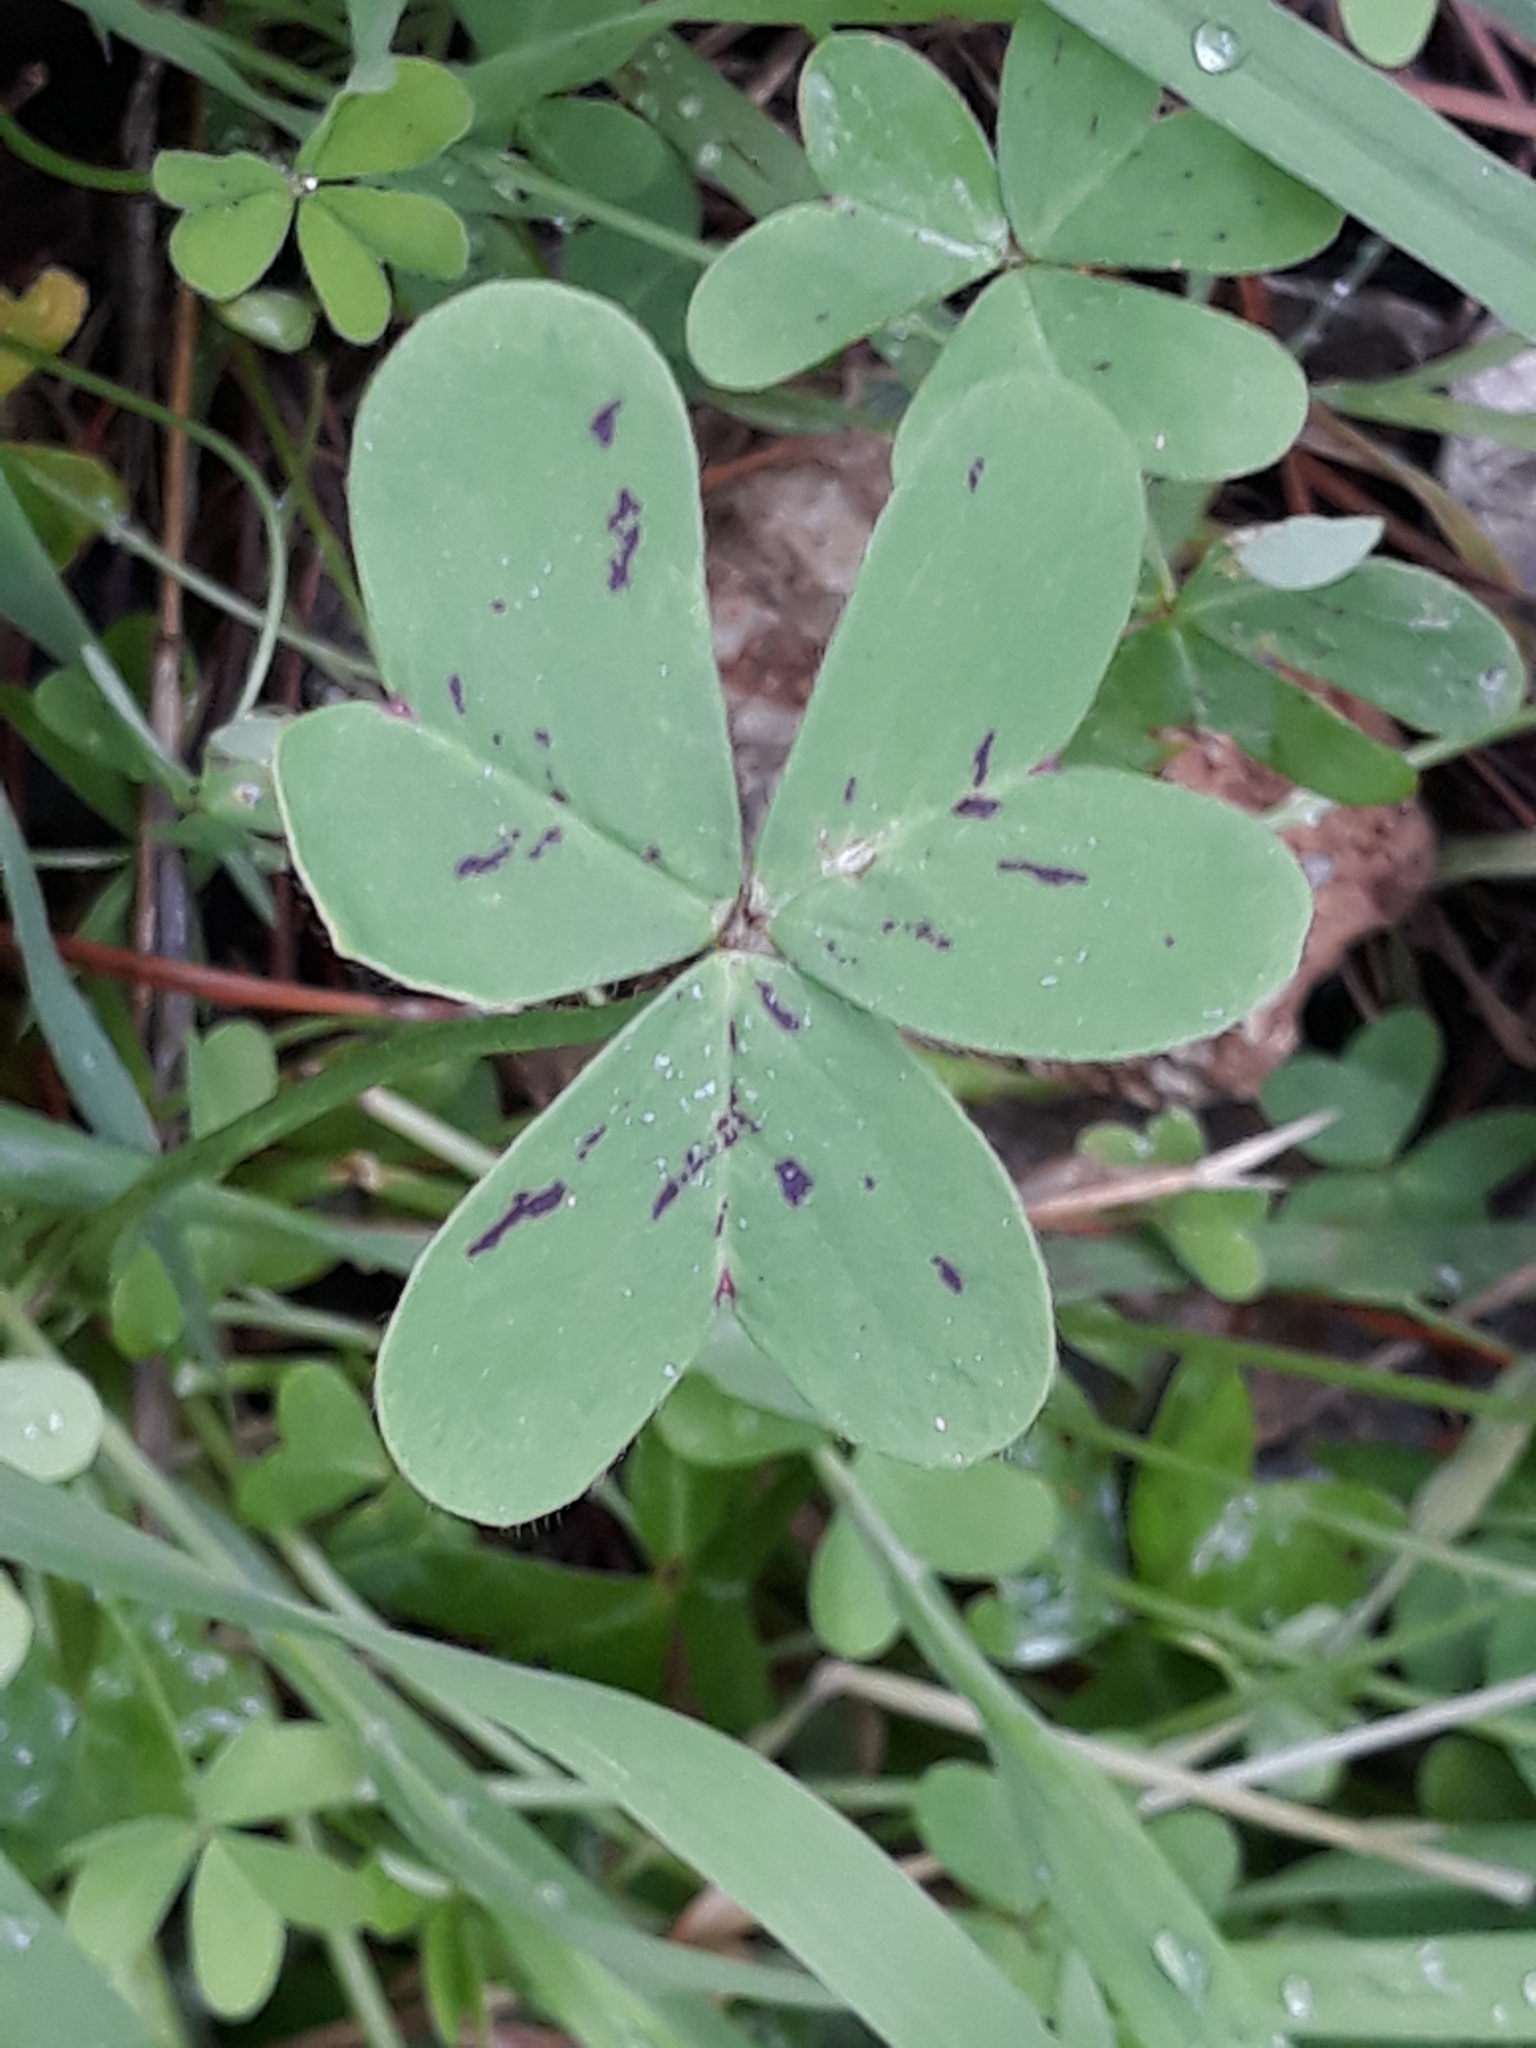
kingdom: Plantae
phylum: Tracheophyta
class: Magnoliopsida
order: Oxalidales
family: Oxalidaceae
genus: Oxalis
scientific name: Oxalis pes-caprae
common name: Bermuda-buttercup
